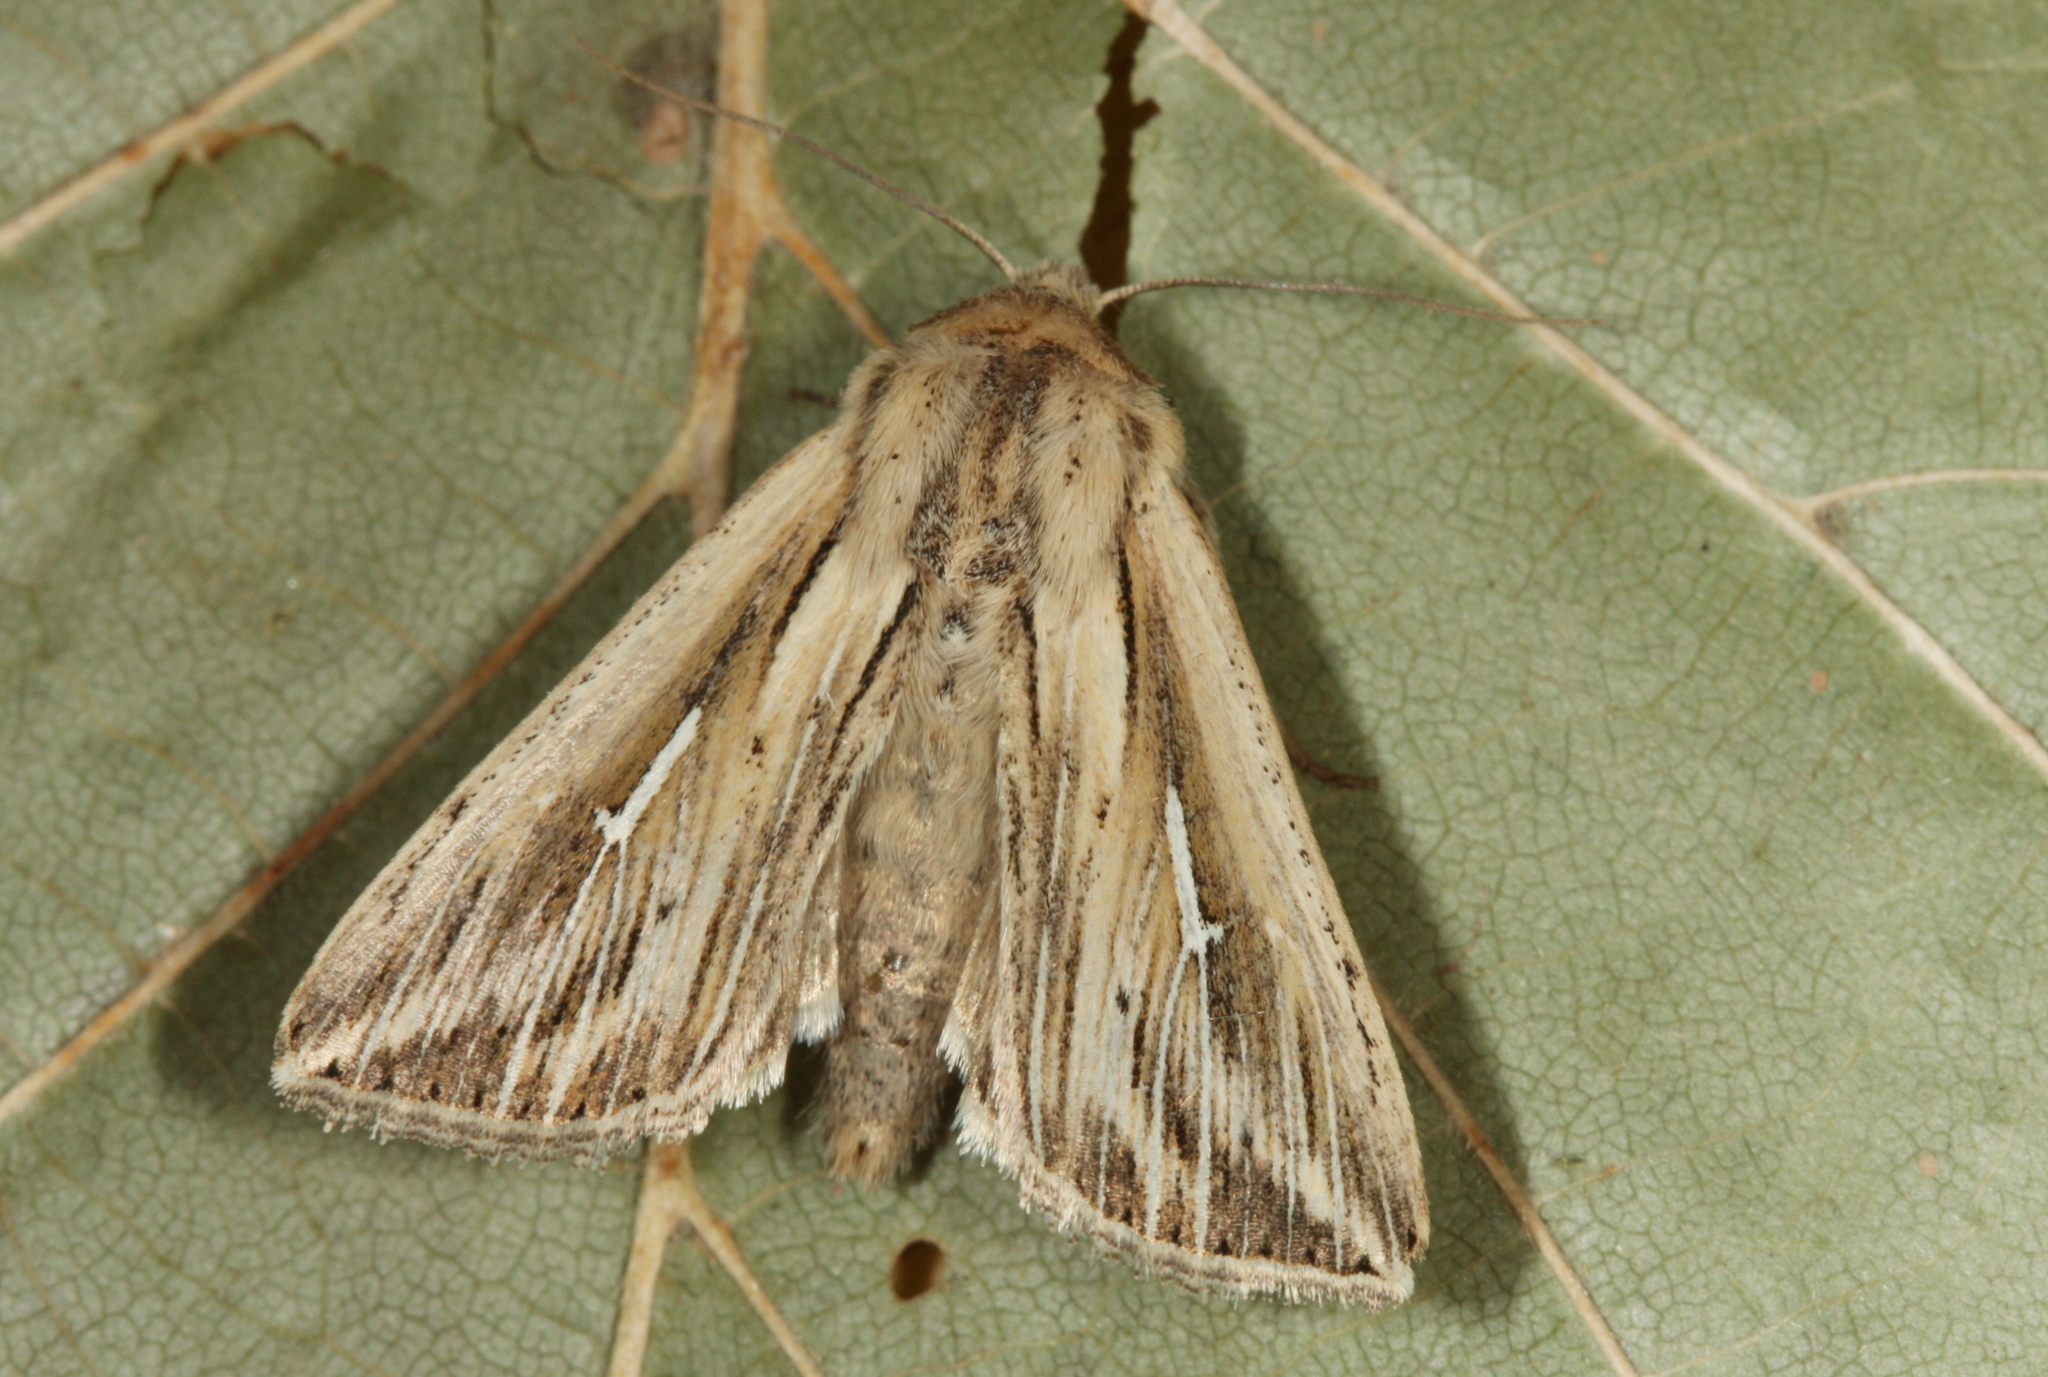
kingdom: Animalia
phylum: Arthropoda
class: Insecta
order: Lepidoptera
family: Noctuidae
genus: Mythimna
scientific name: Mythimna l-album
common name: L-album wainscot
